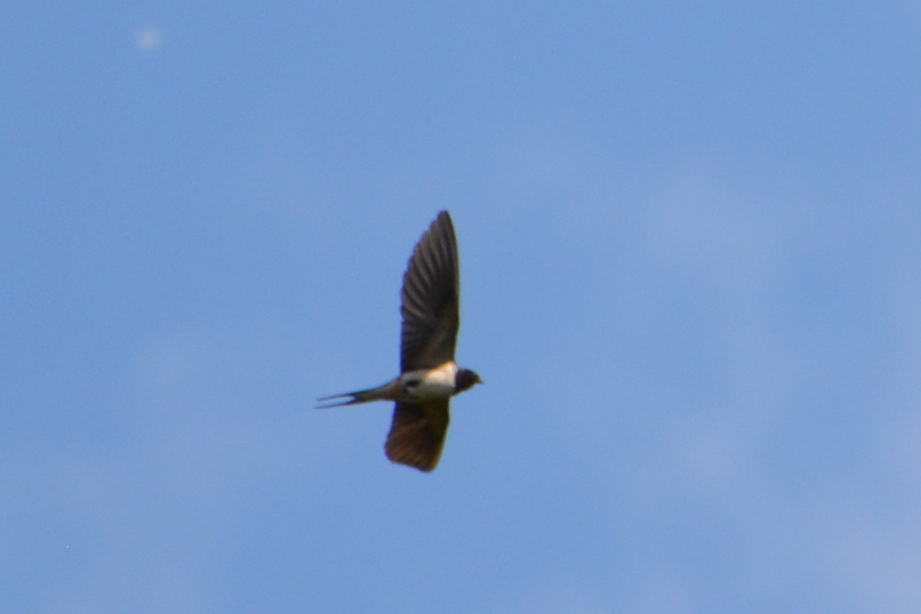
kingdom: Animalia
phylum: Chordata
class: Aves
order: Passeriformes
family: Hirundinidae
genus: Hirundo
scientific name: Hirundo rustica
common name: Barn swallow
